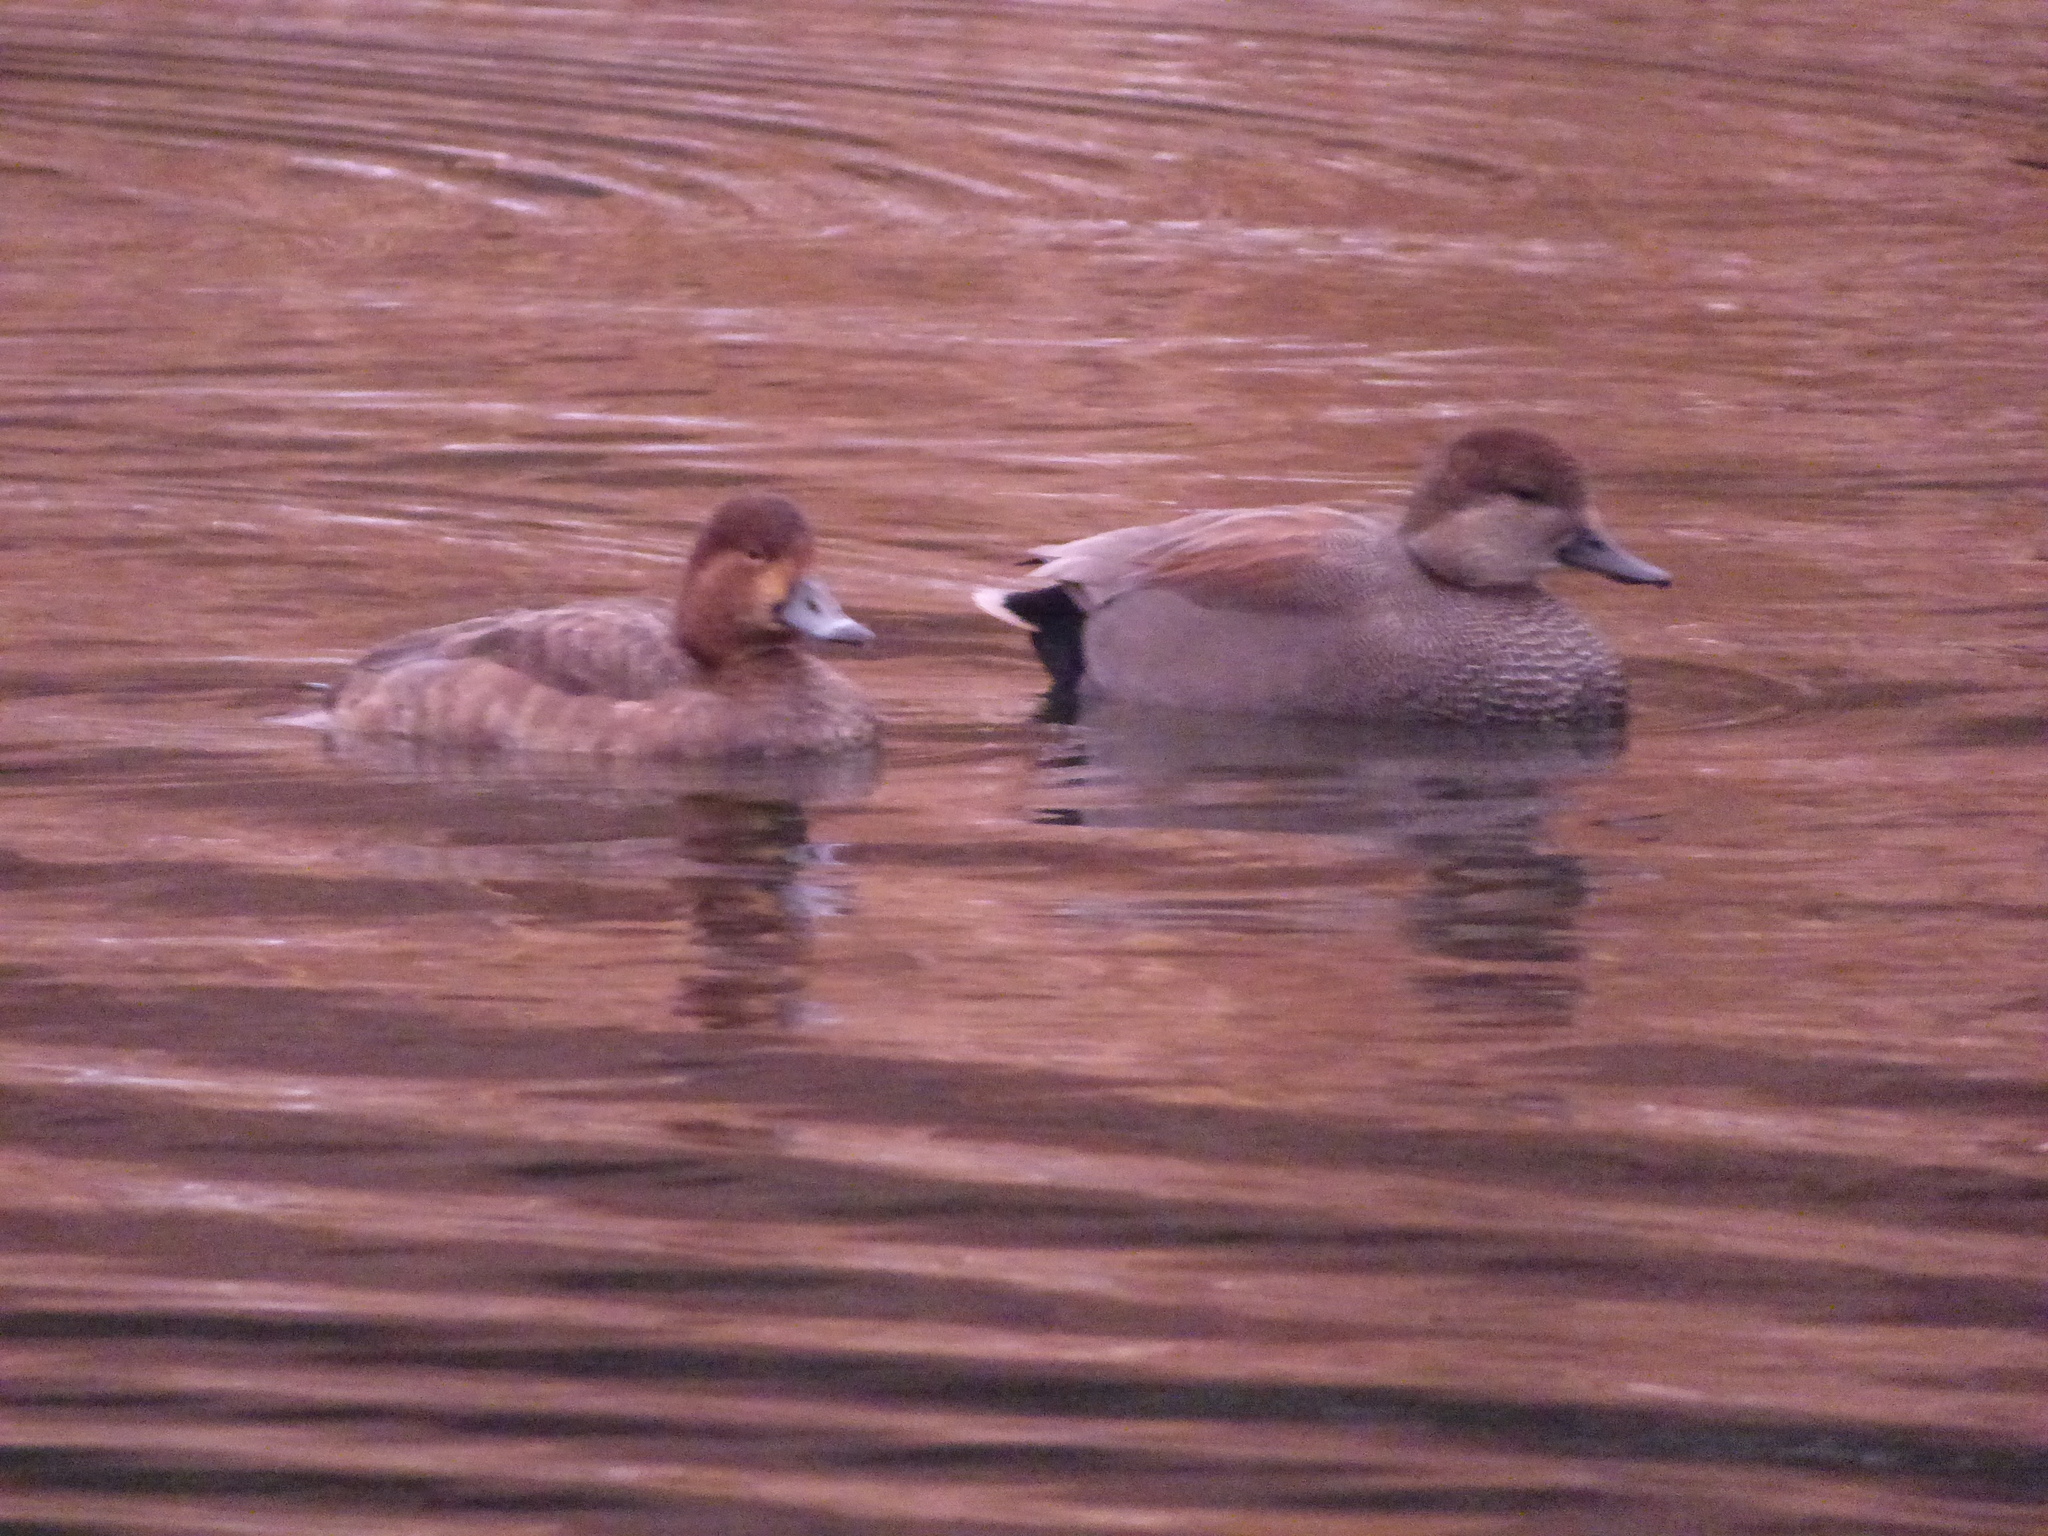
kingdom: Animalia
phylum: Chordata
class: Aves
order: Anseriformes
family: Anatidae
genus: Mareca
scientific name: Mareca strepera
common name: Gadwall
